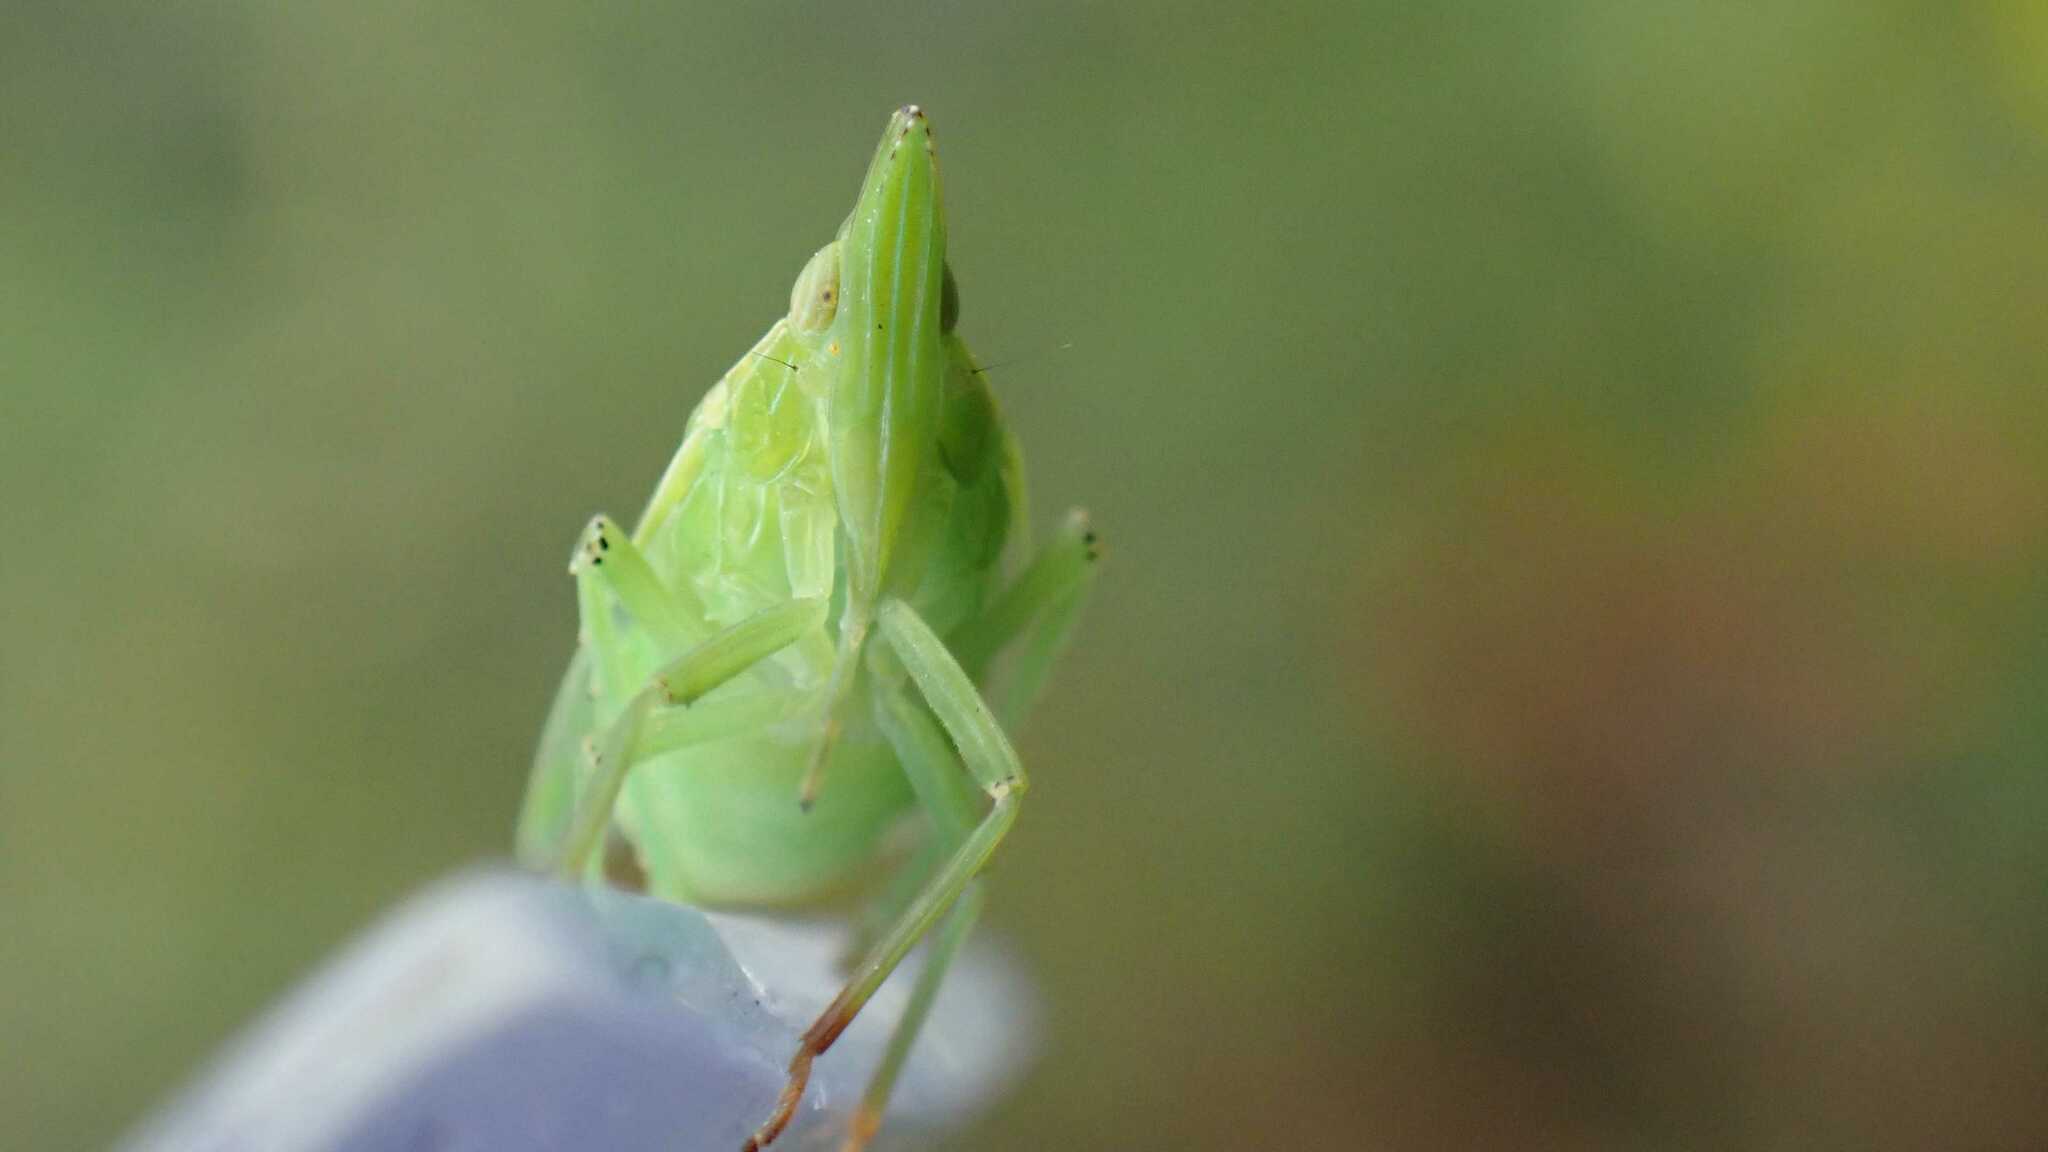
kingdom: Animalia
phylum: Arthropoda
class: Insecta
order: Hemiptera
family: Dictyopharidae
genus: Dictyophara
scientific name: Dictyophara europaea
